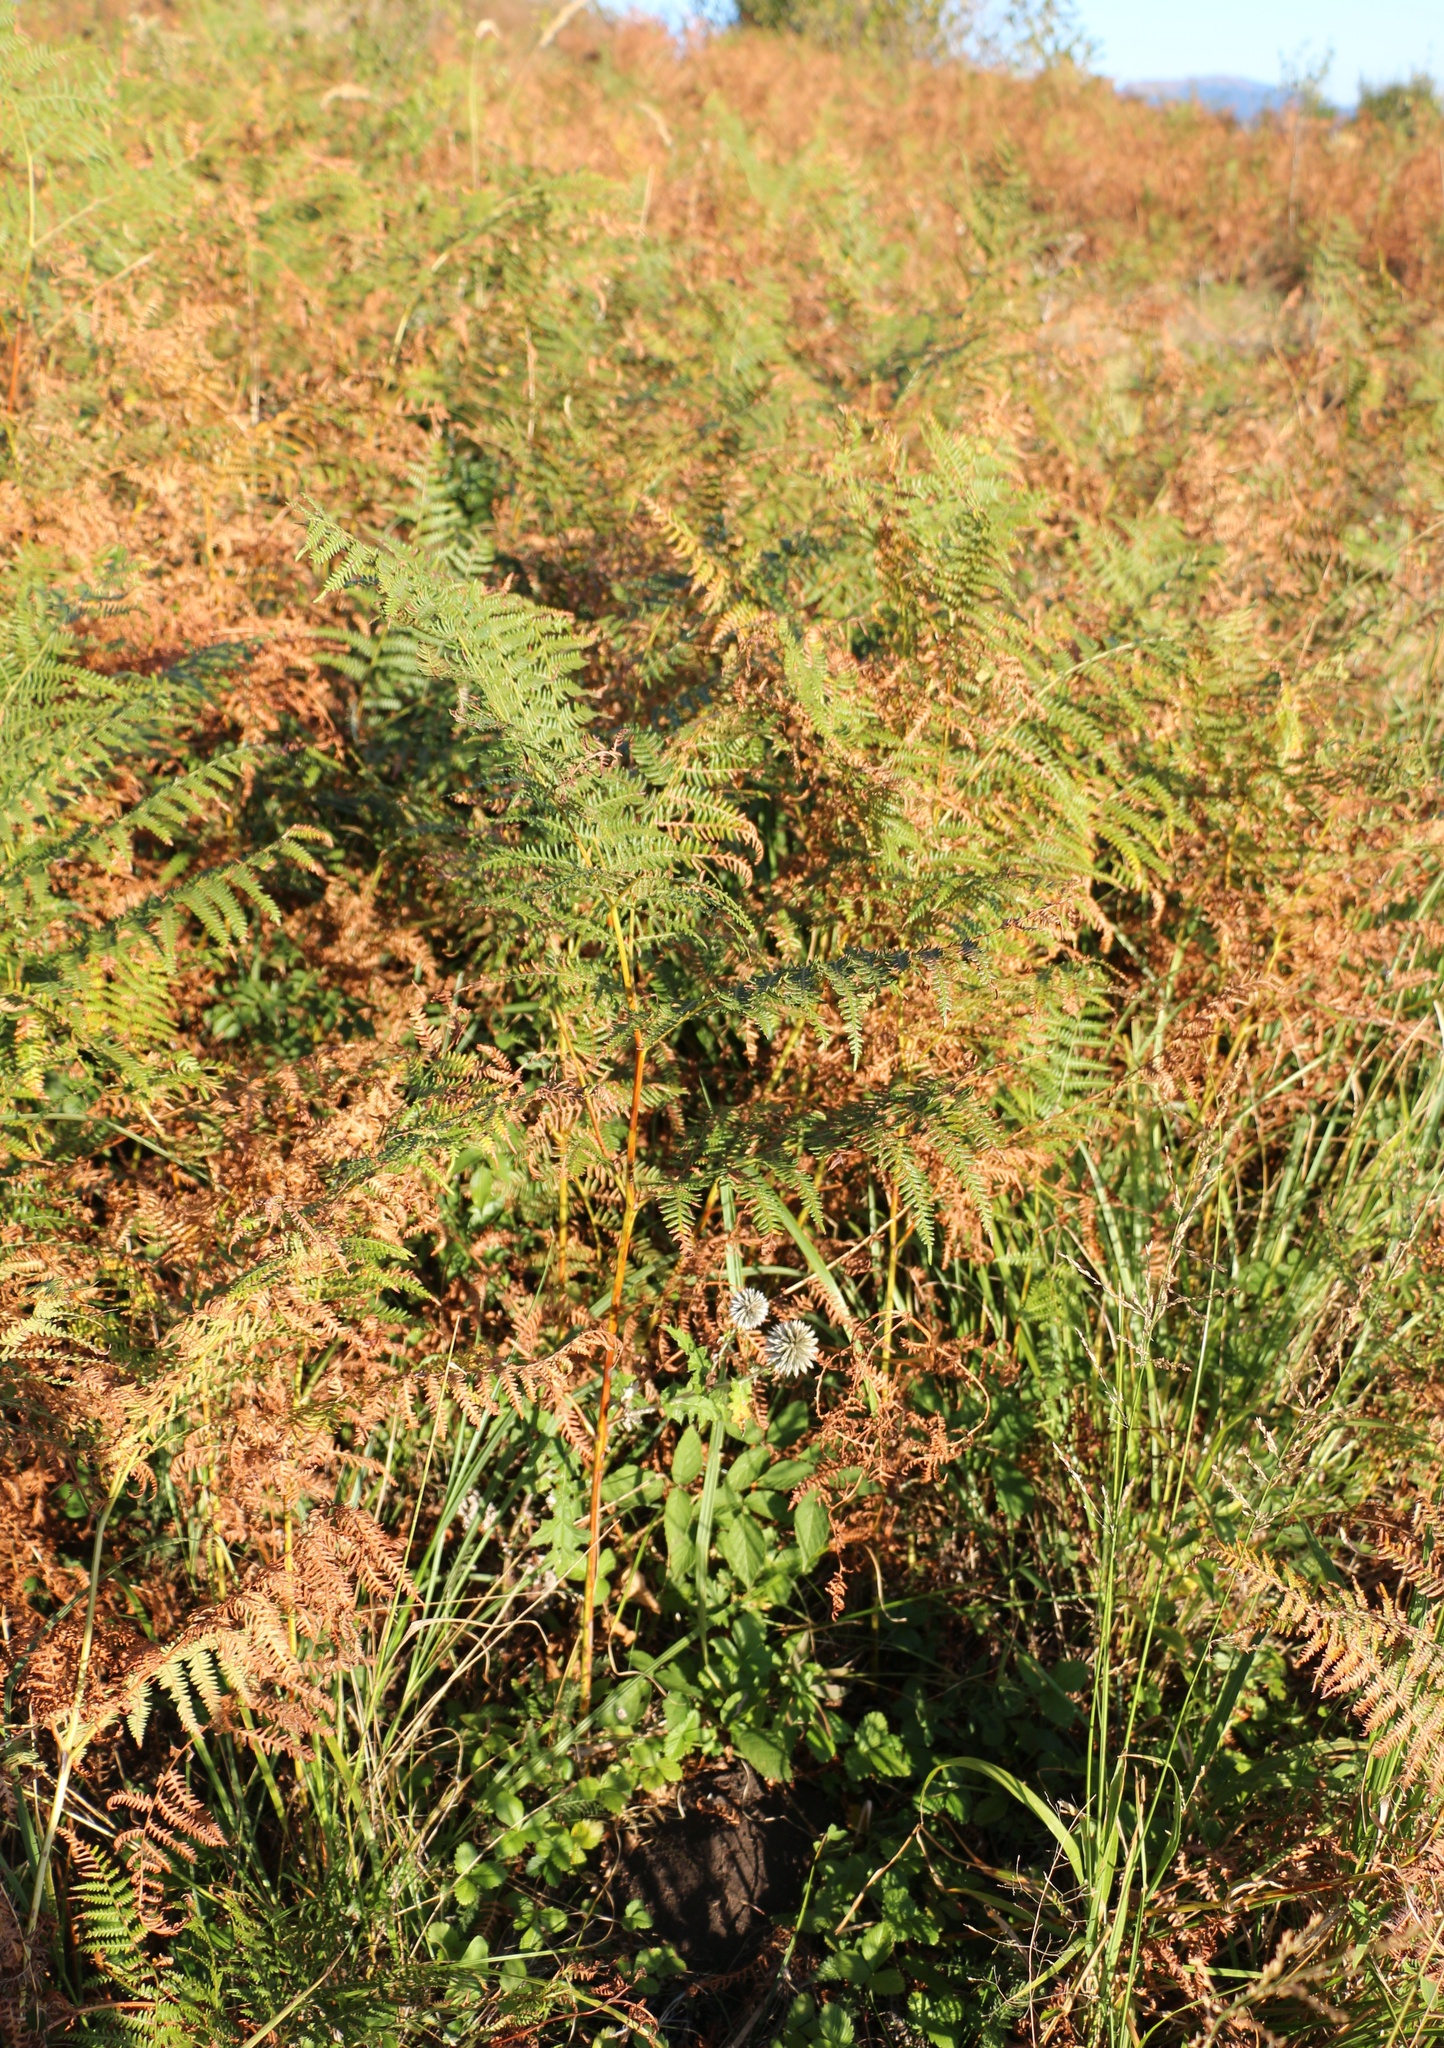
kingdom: Plantae
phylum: Tracheophyta
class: Polypodiopsida
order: Polypodiales
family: Dennstaedtiaceae
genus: Pteridium
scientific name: Pteridium tauricum
